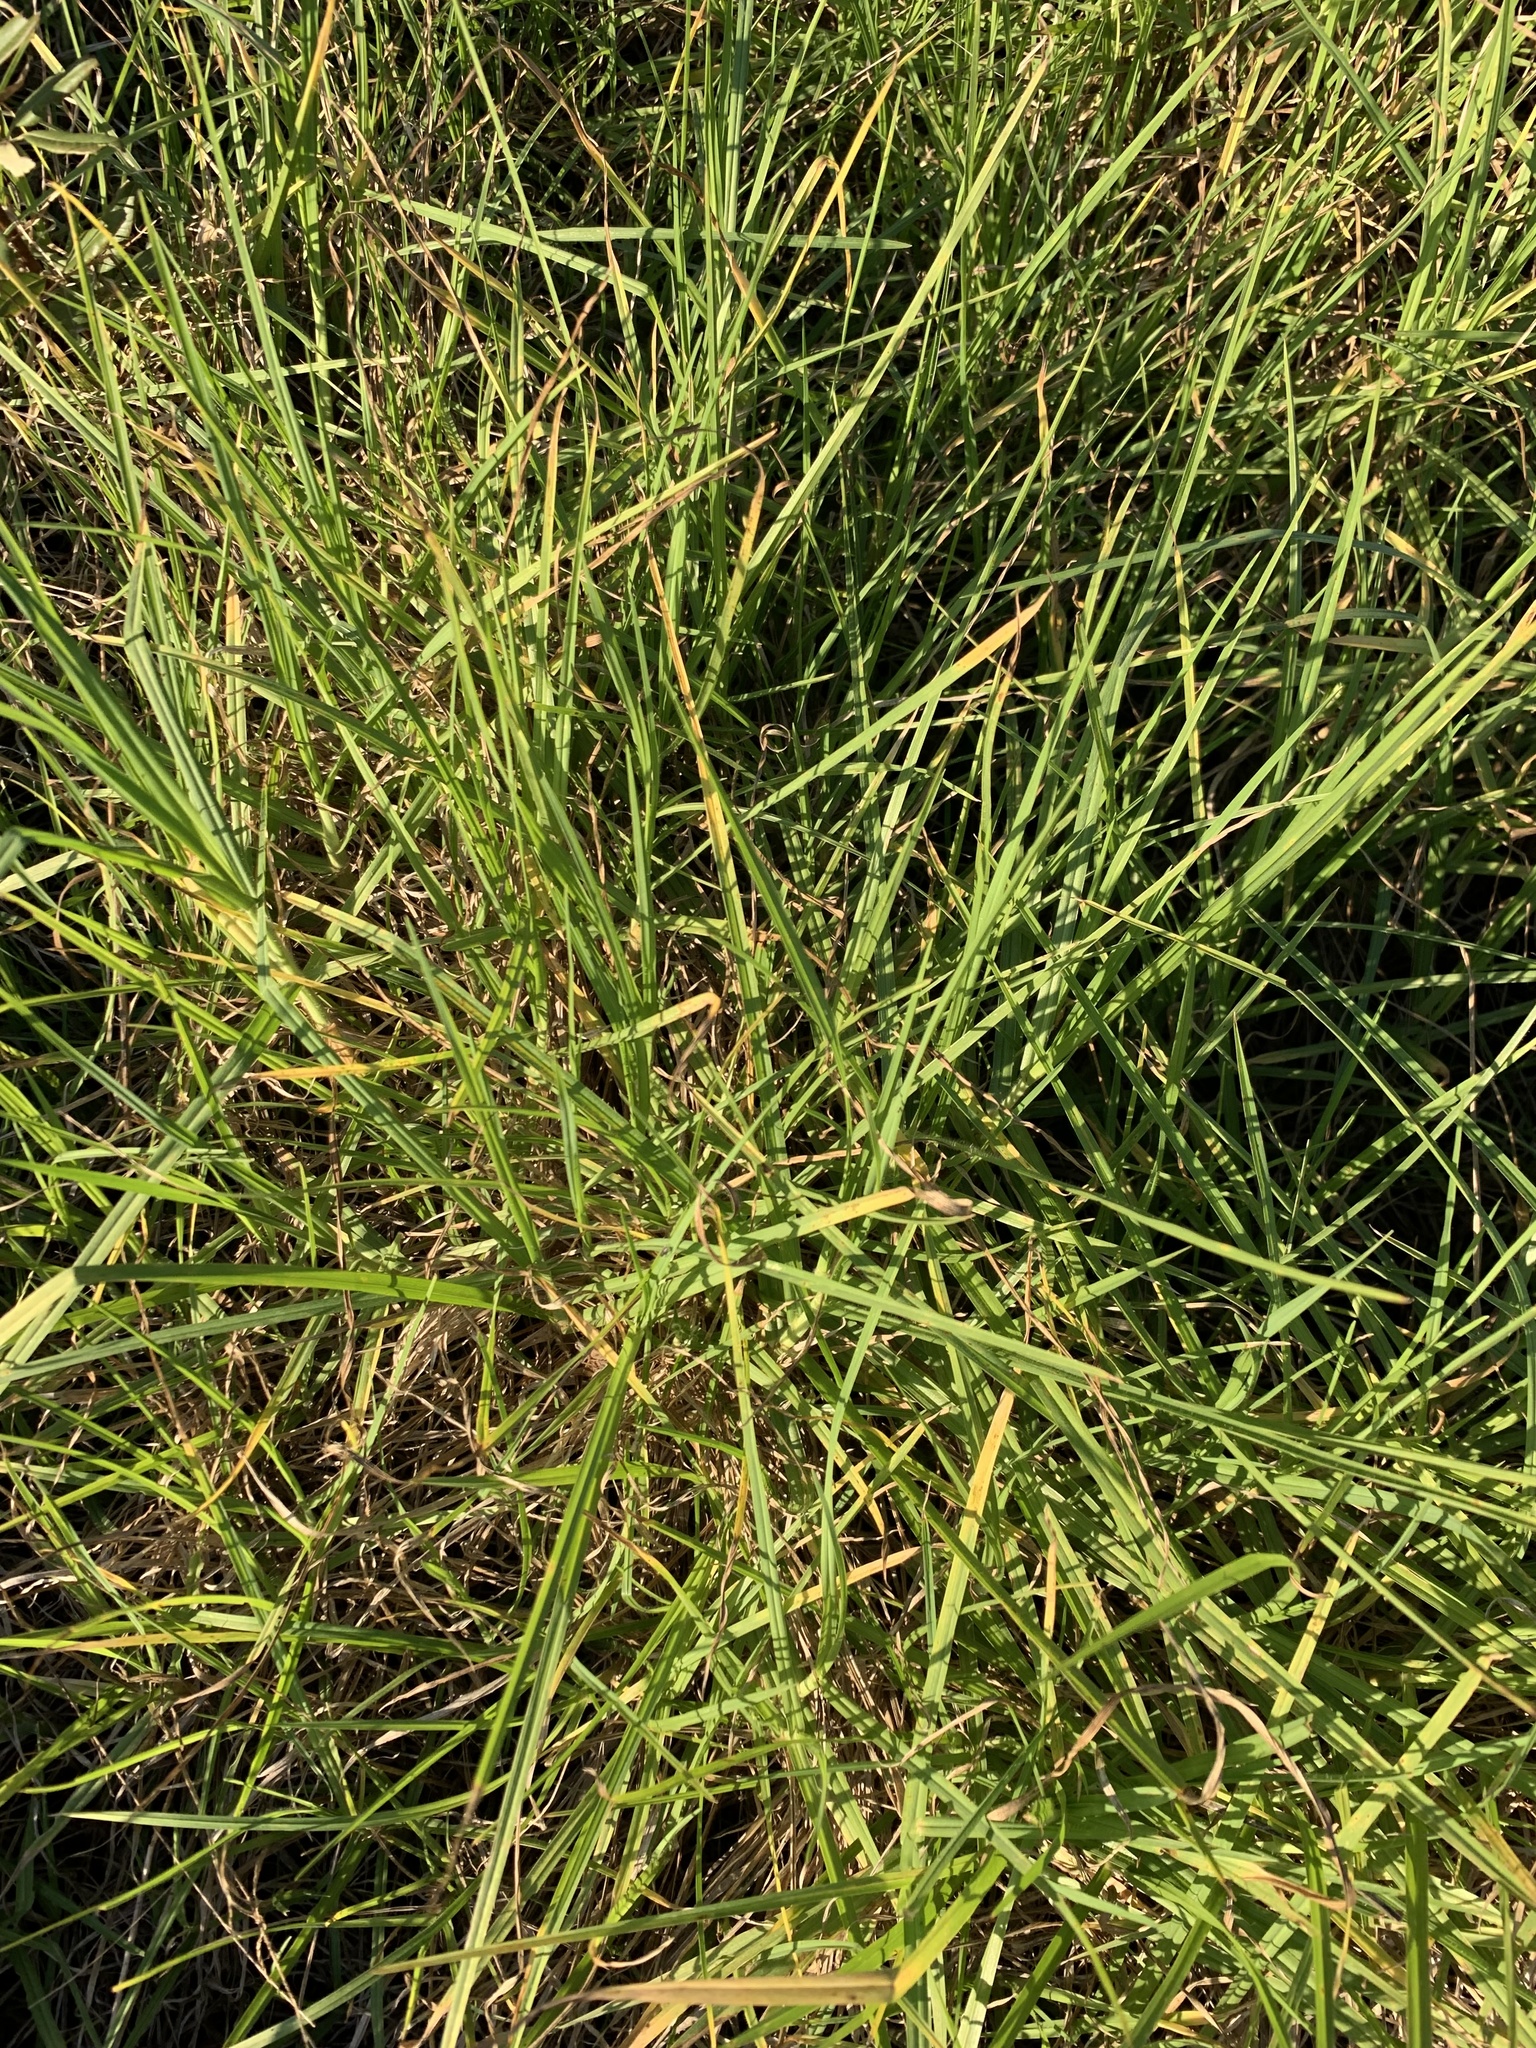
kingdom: Plantae
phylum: Tracheophyta
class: Liliopsida
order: Poales
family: Poaceae
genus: Cenchrus
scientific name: Cenchrus clandestinus
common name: Kikuyugrass
